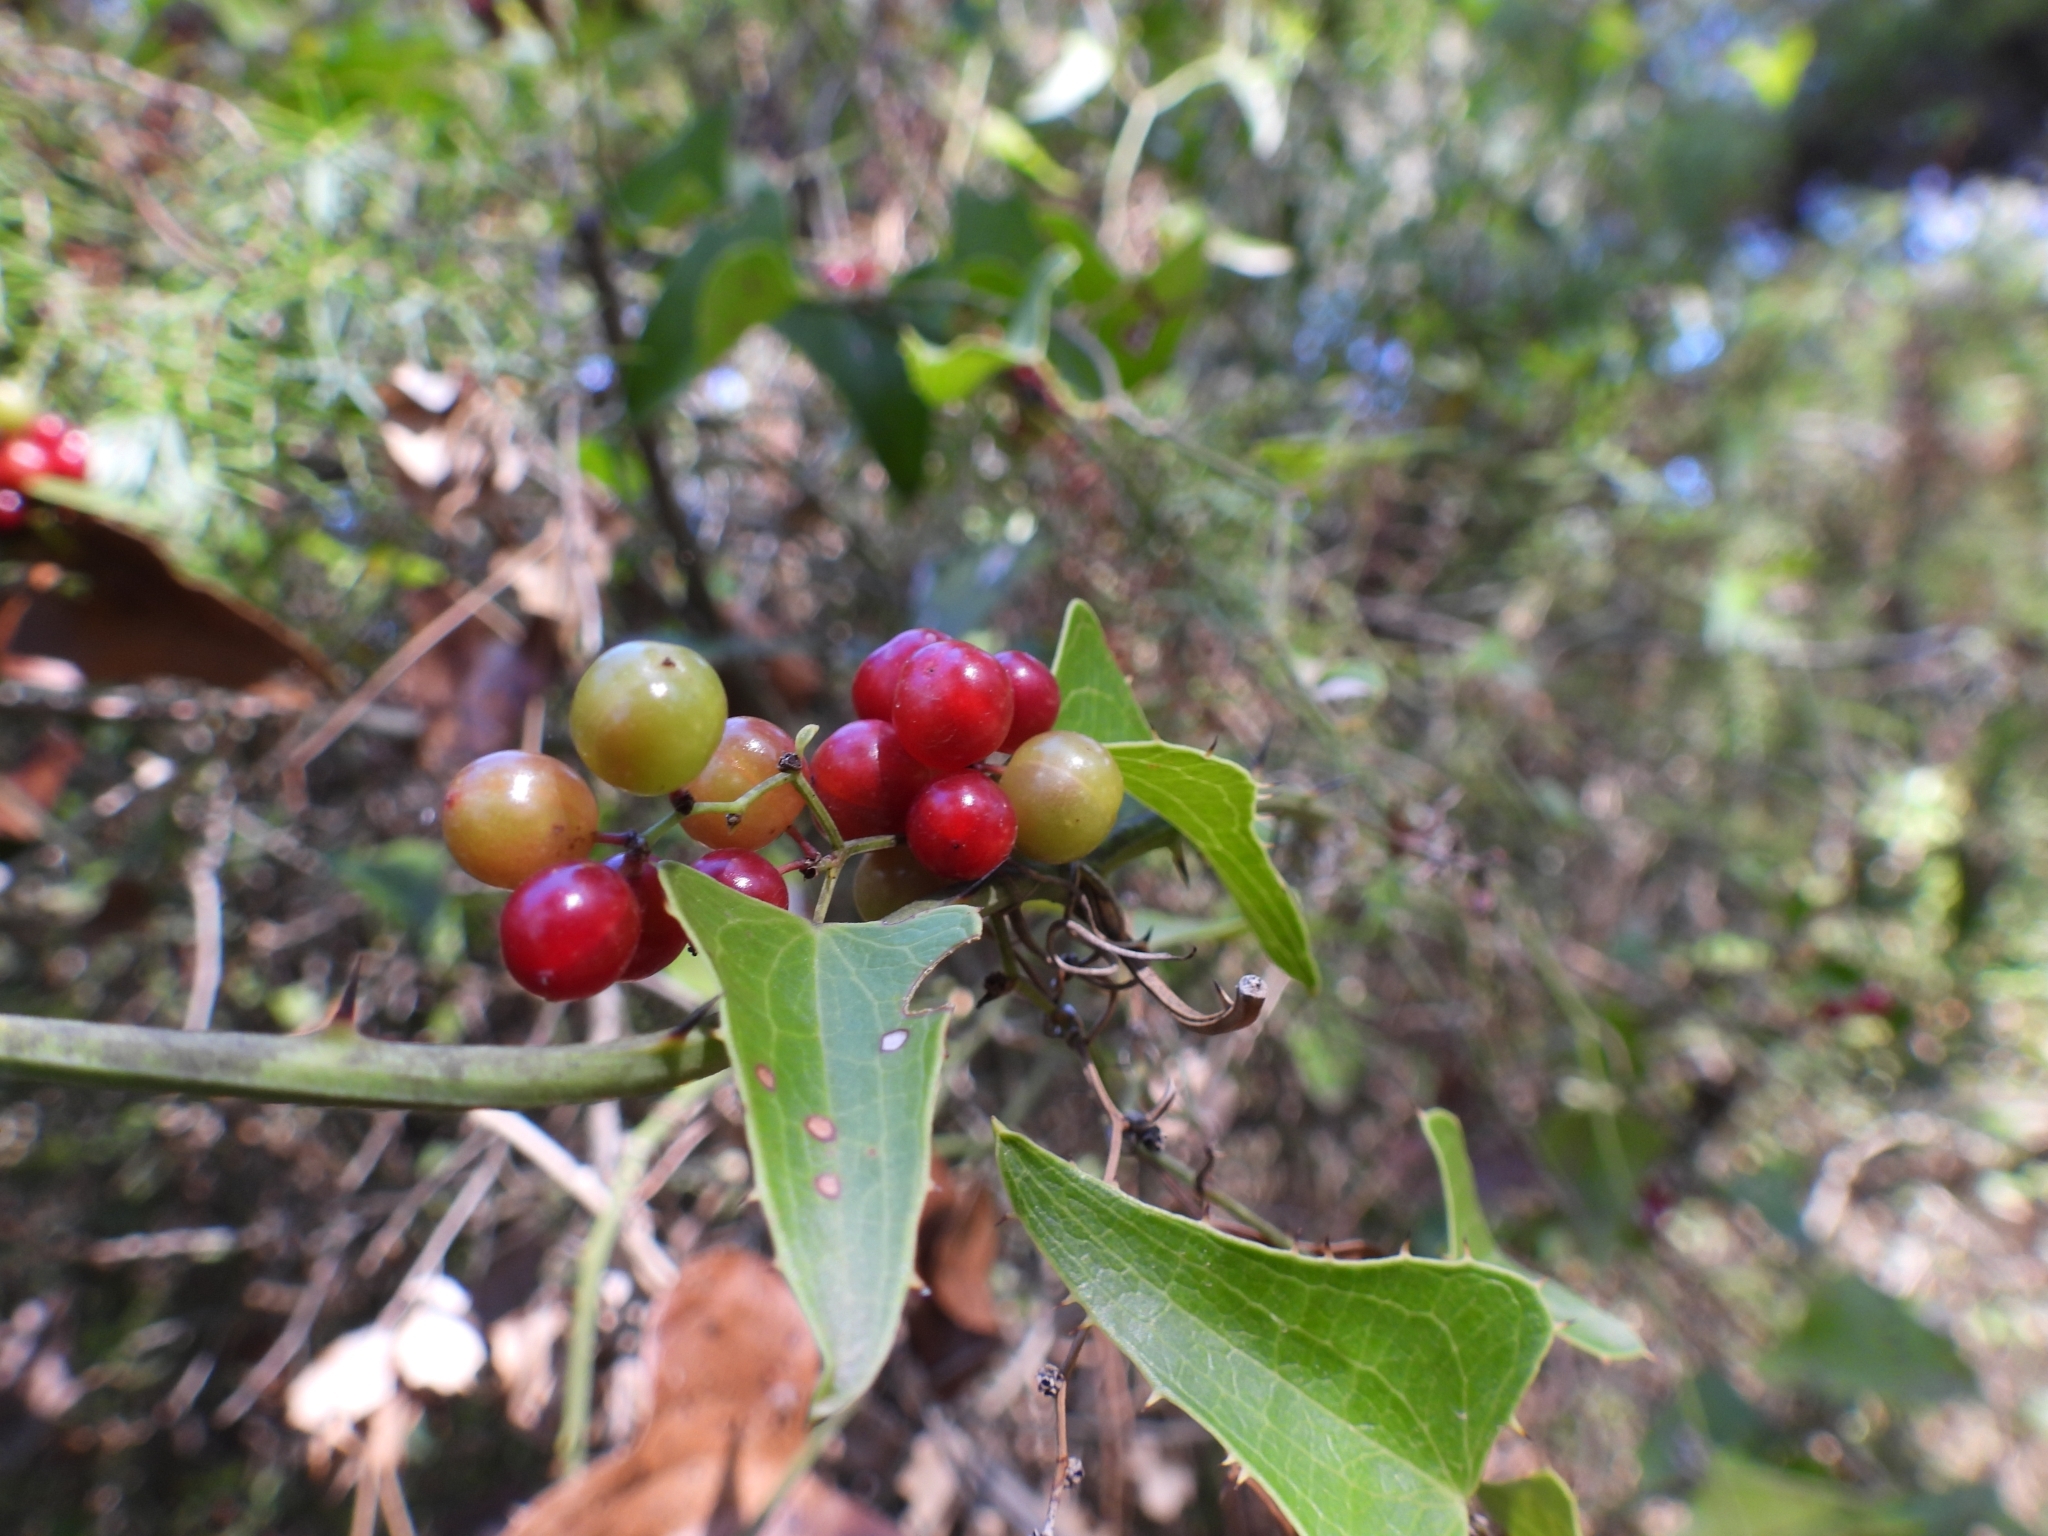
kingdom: Plantae
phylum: Tracheophyta
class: Liliopsida
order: Liliales
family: Smilacaceae
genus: Smilax
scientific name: Smilax aspera
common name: Common smilax
